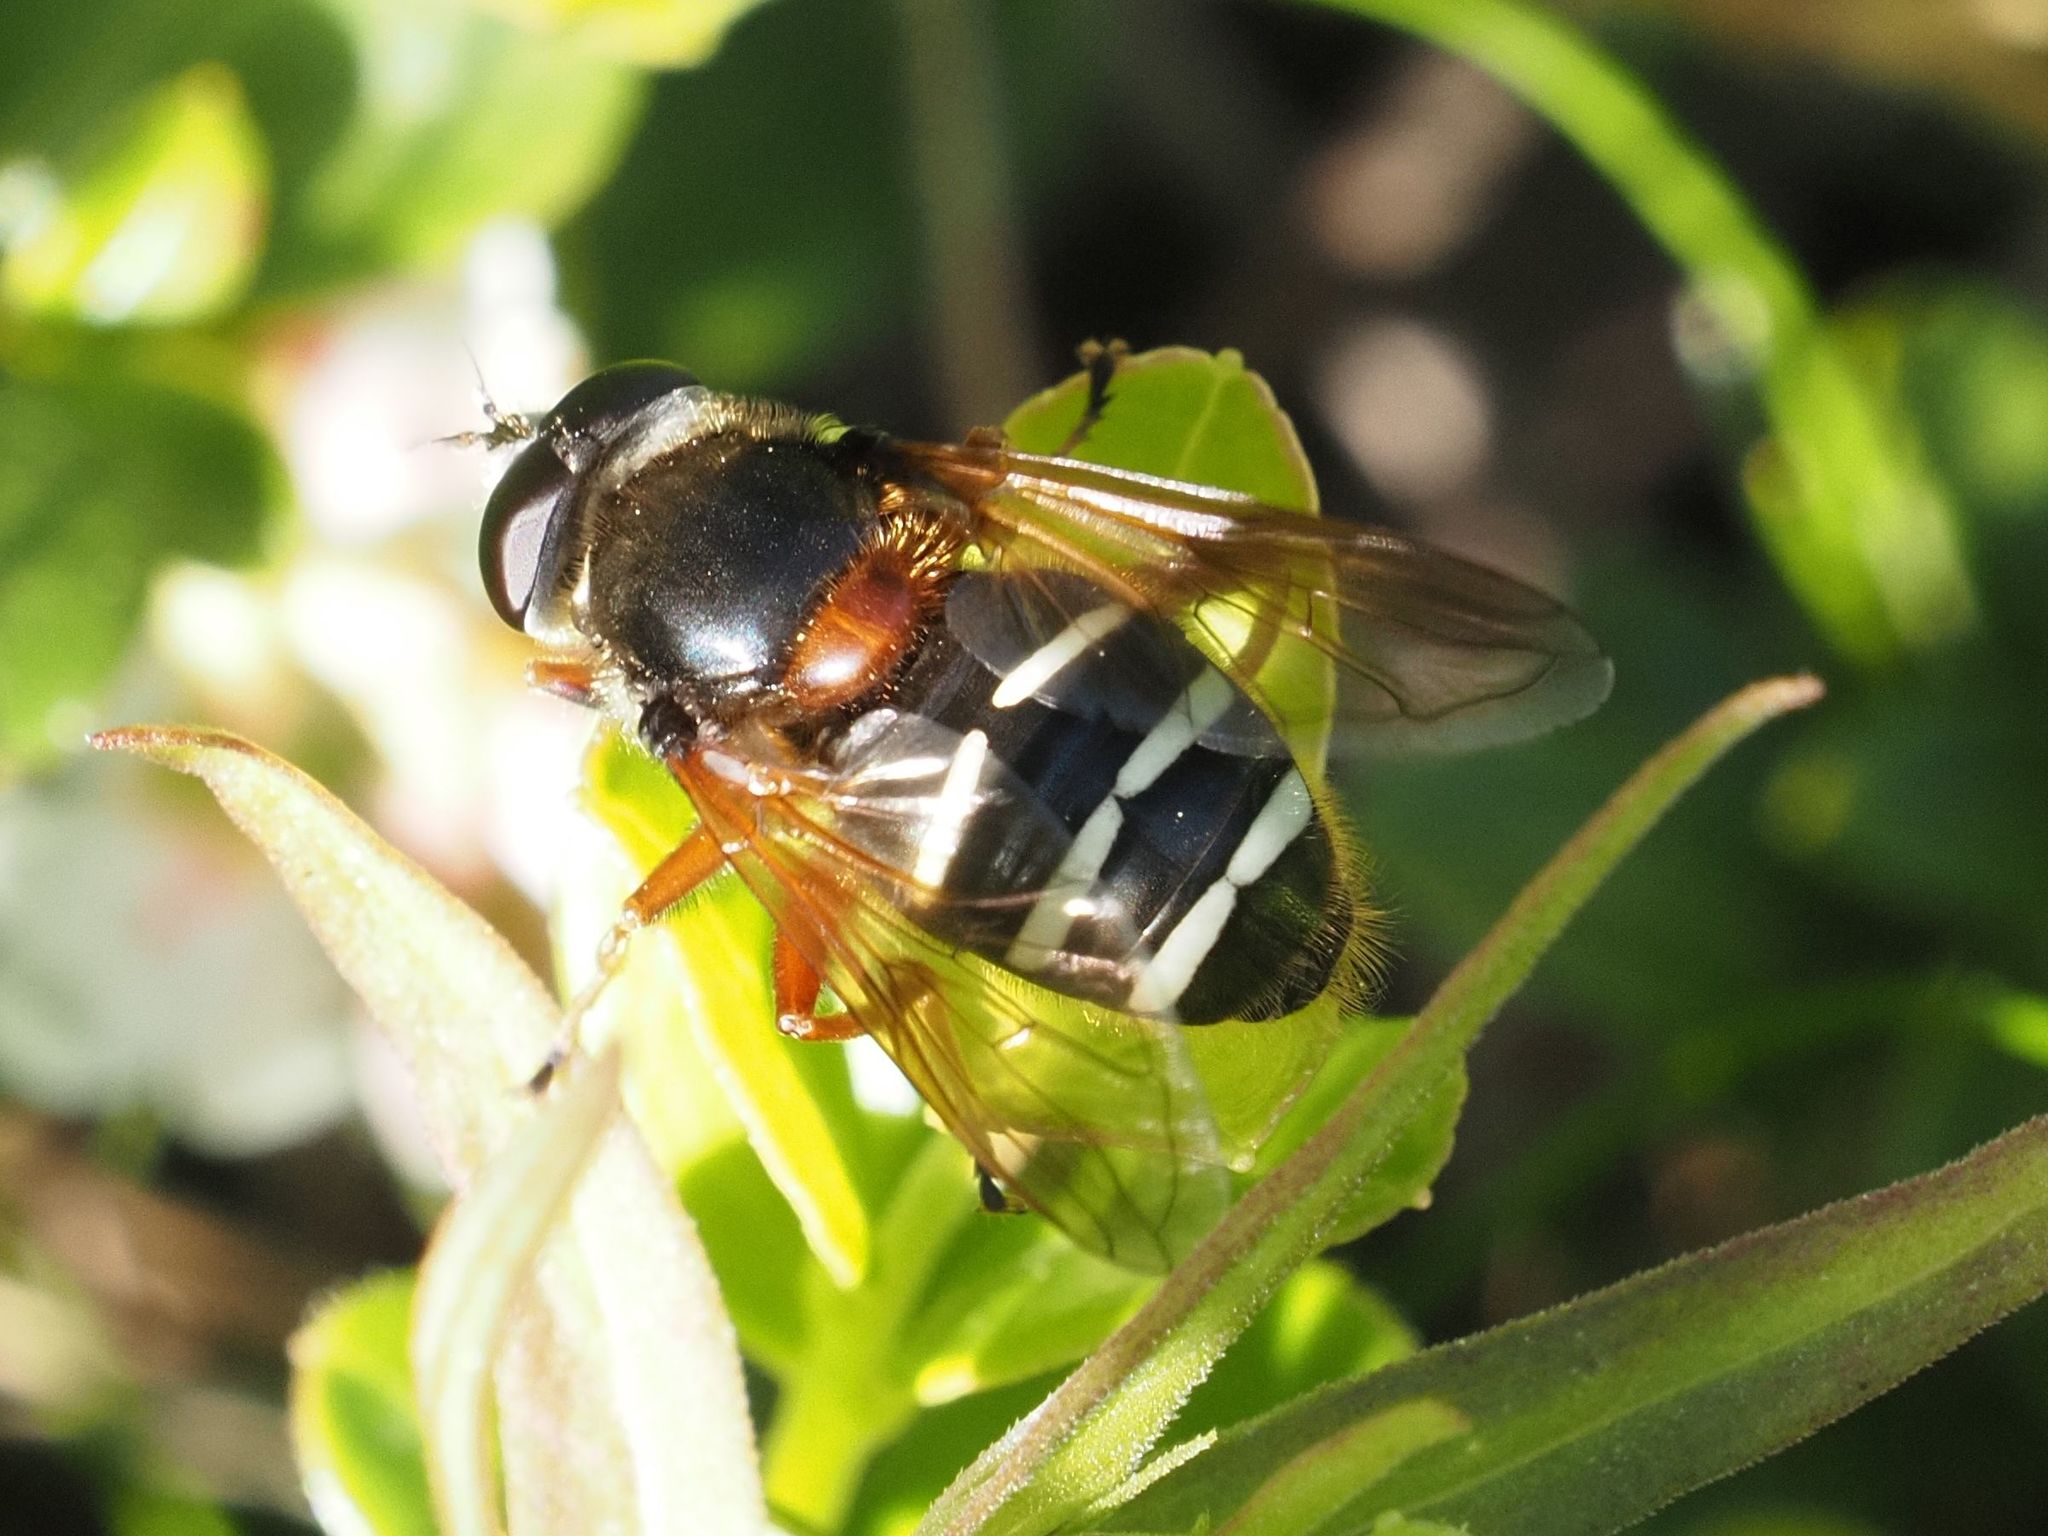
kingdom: Animalia
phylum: Arthropoda
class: Insecta
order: Diptera
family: Syrphidae
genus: Sericomyia
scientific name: Sericomyia lappona
